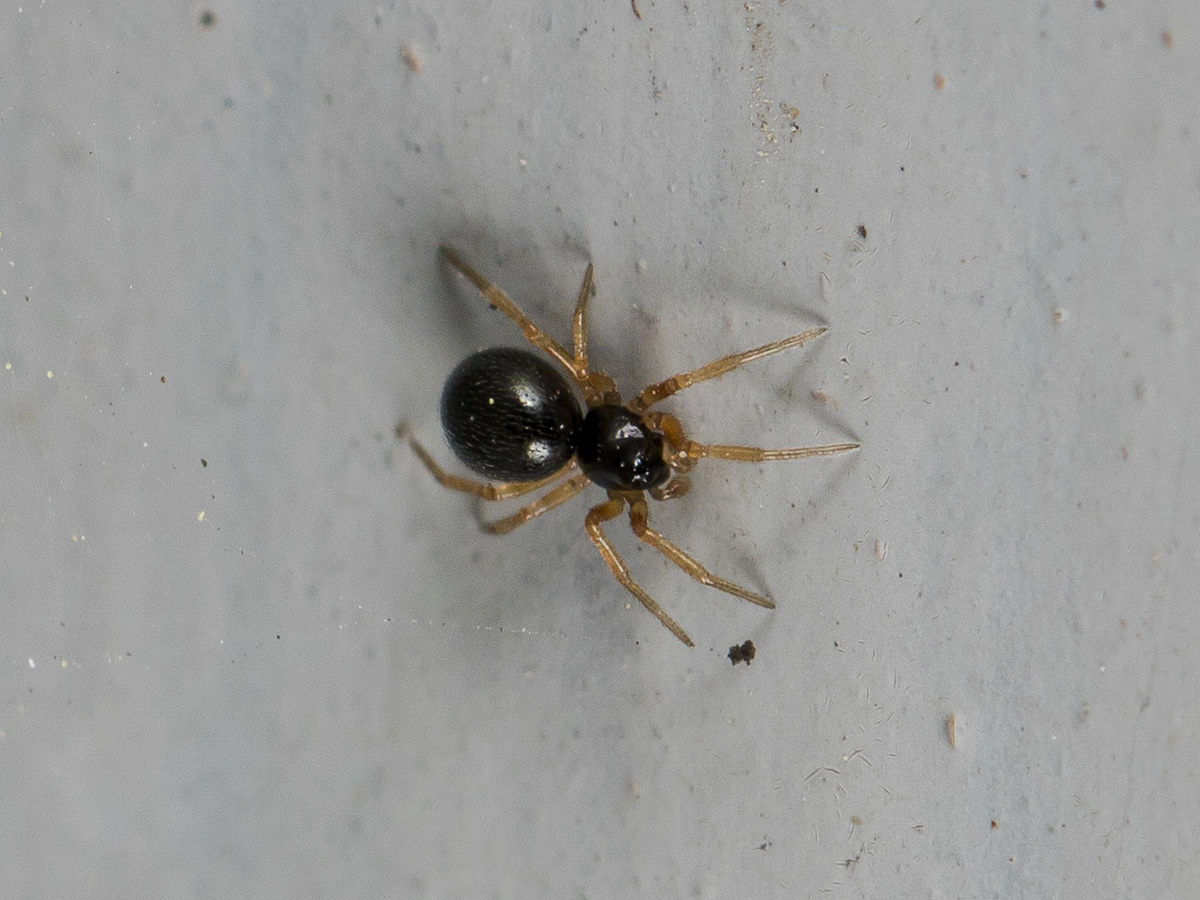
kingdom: Animalia
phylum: Arthropoda
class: Arachnida
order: Araneae
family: Linyphiidae
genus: Entelecara
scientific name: Entelecara acuminata
